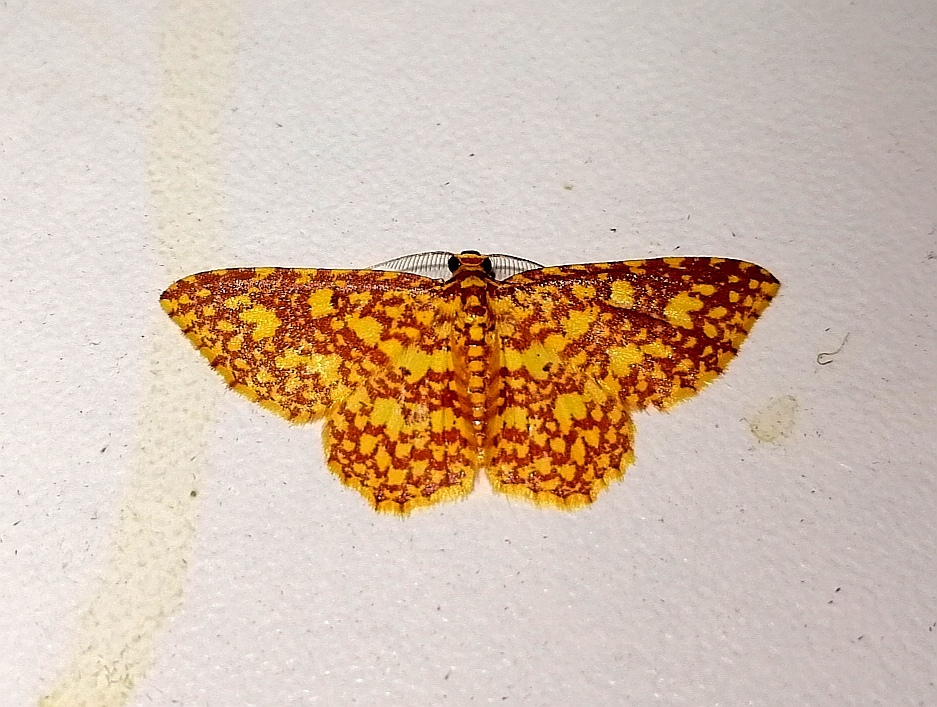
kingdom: Animalia
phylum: Arthropoda
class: Insecta
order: Lepidoptera
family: Geometridae
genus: Eois
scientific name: Eois cancellata
